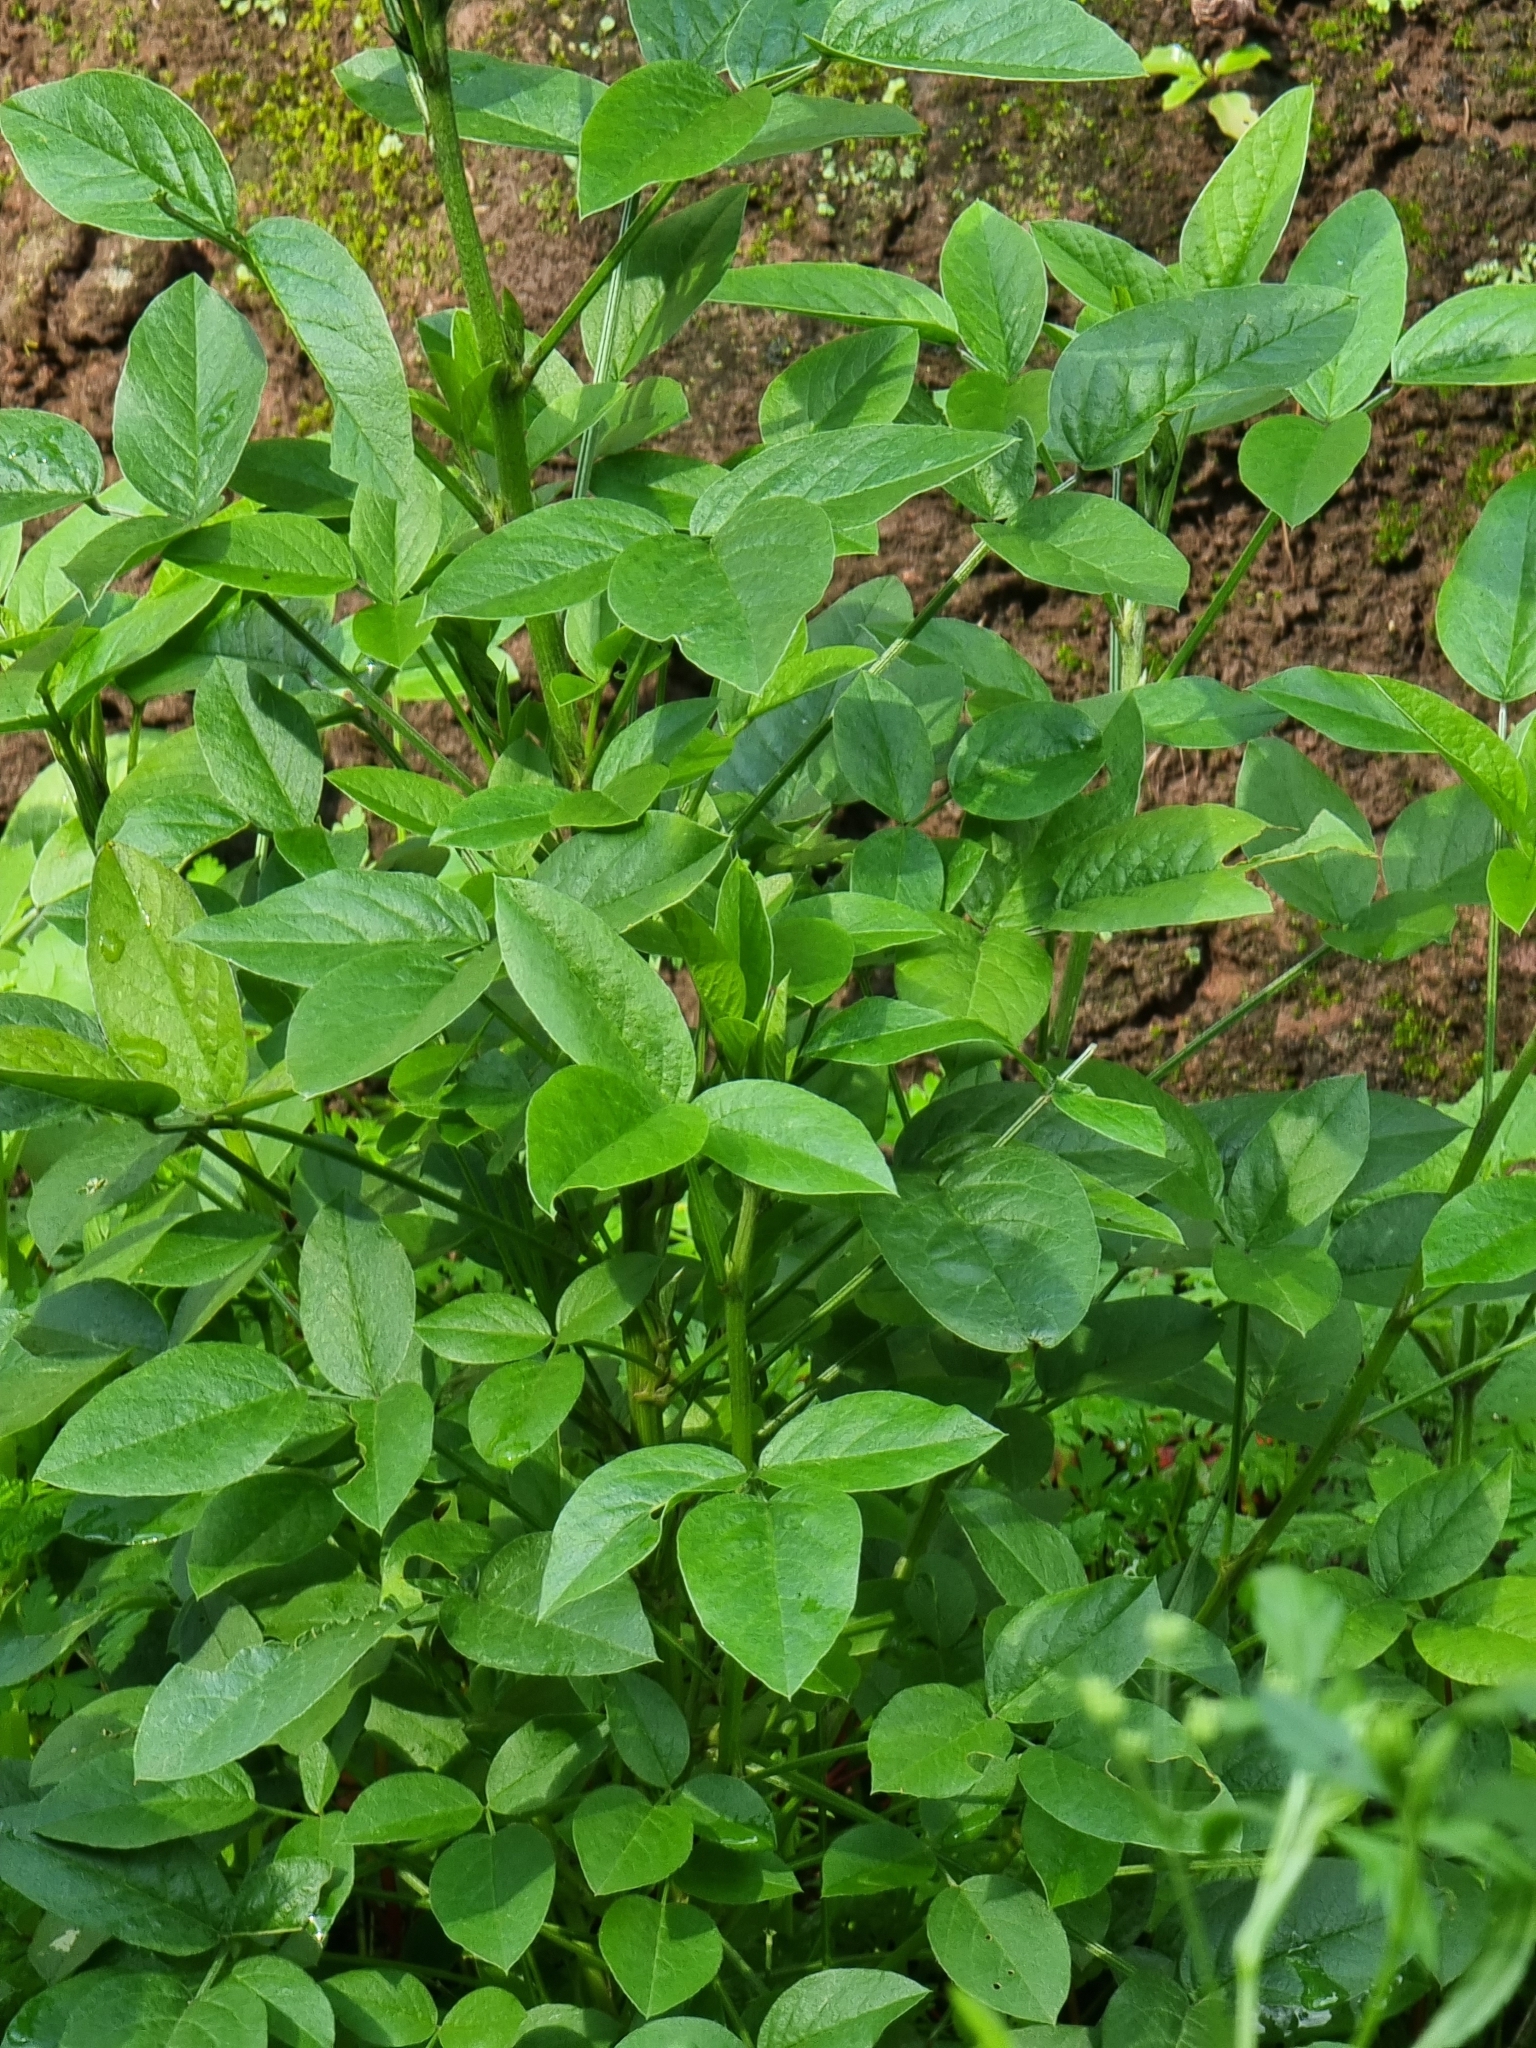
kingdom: Plantae
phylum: Tracheophyta
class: Magnoliopsida
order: Fabales
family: Fabaceae
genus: Bituminaria
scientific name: Bituminaria bituminosa
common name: Arabian pea
